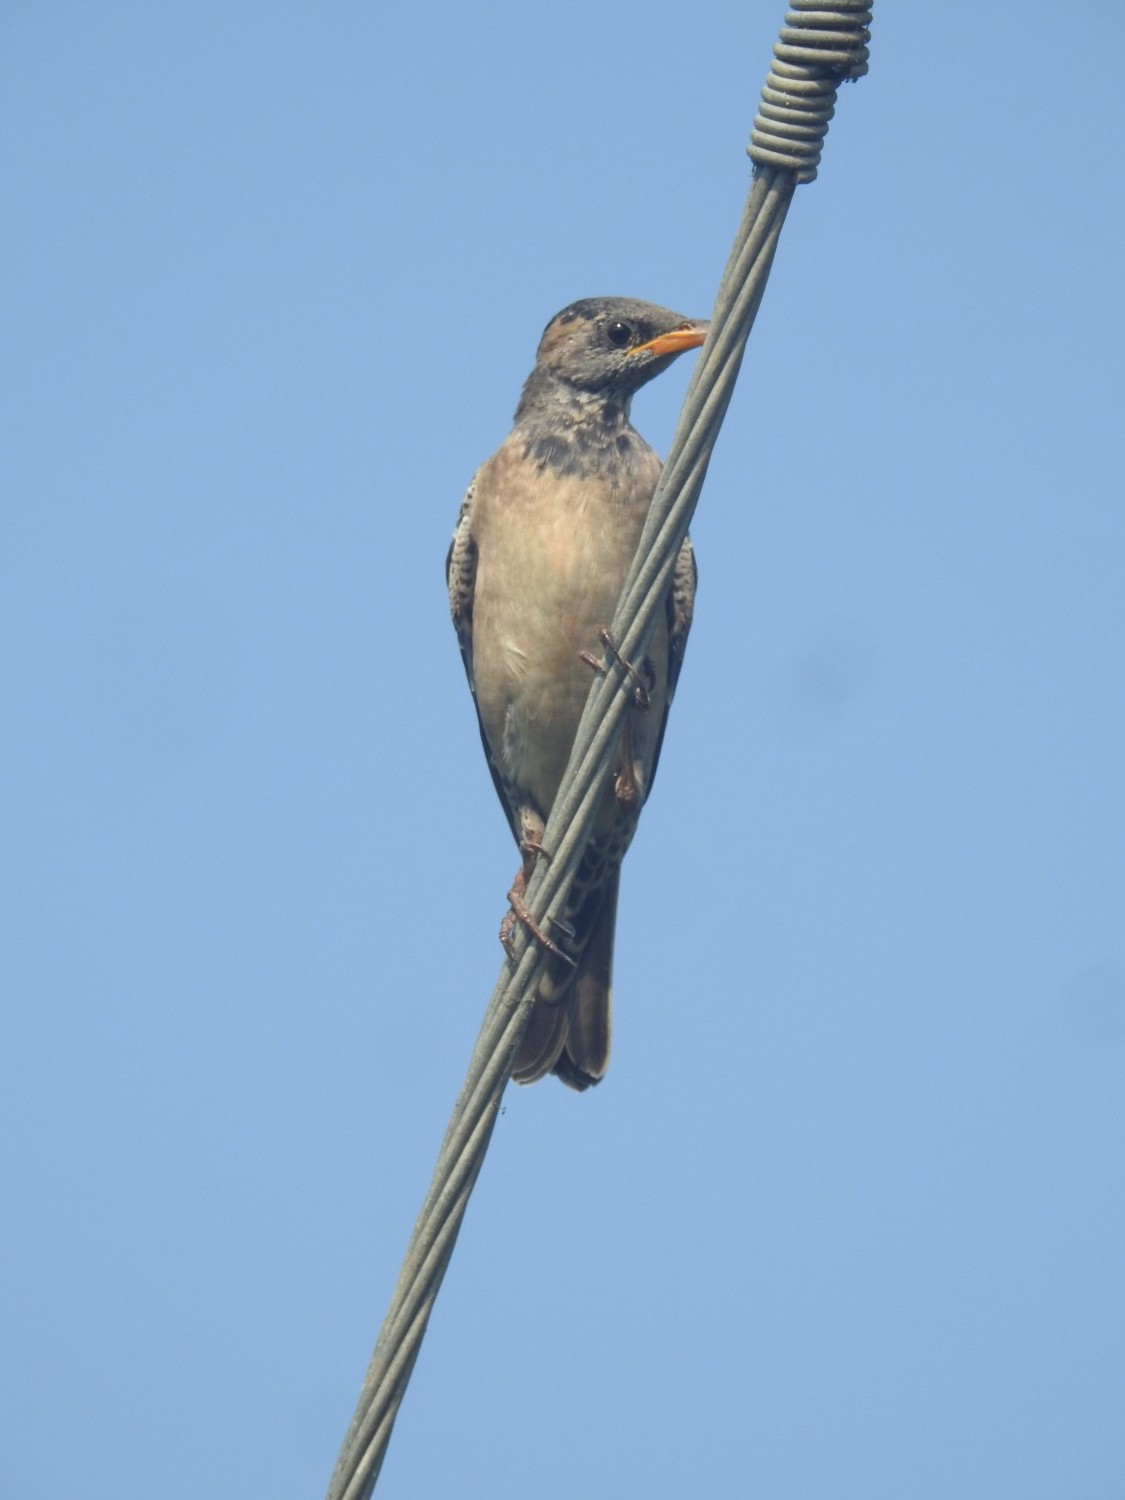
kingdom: Animalia
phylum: Chordata
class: Aves
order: Passeriformes
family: Sturnidae
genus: Pastor
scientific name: Pastor roseus
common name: Rosy starling
